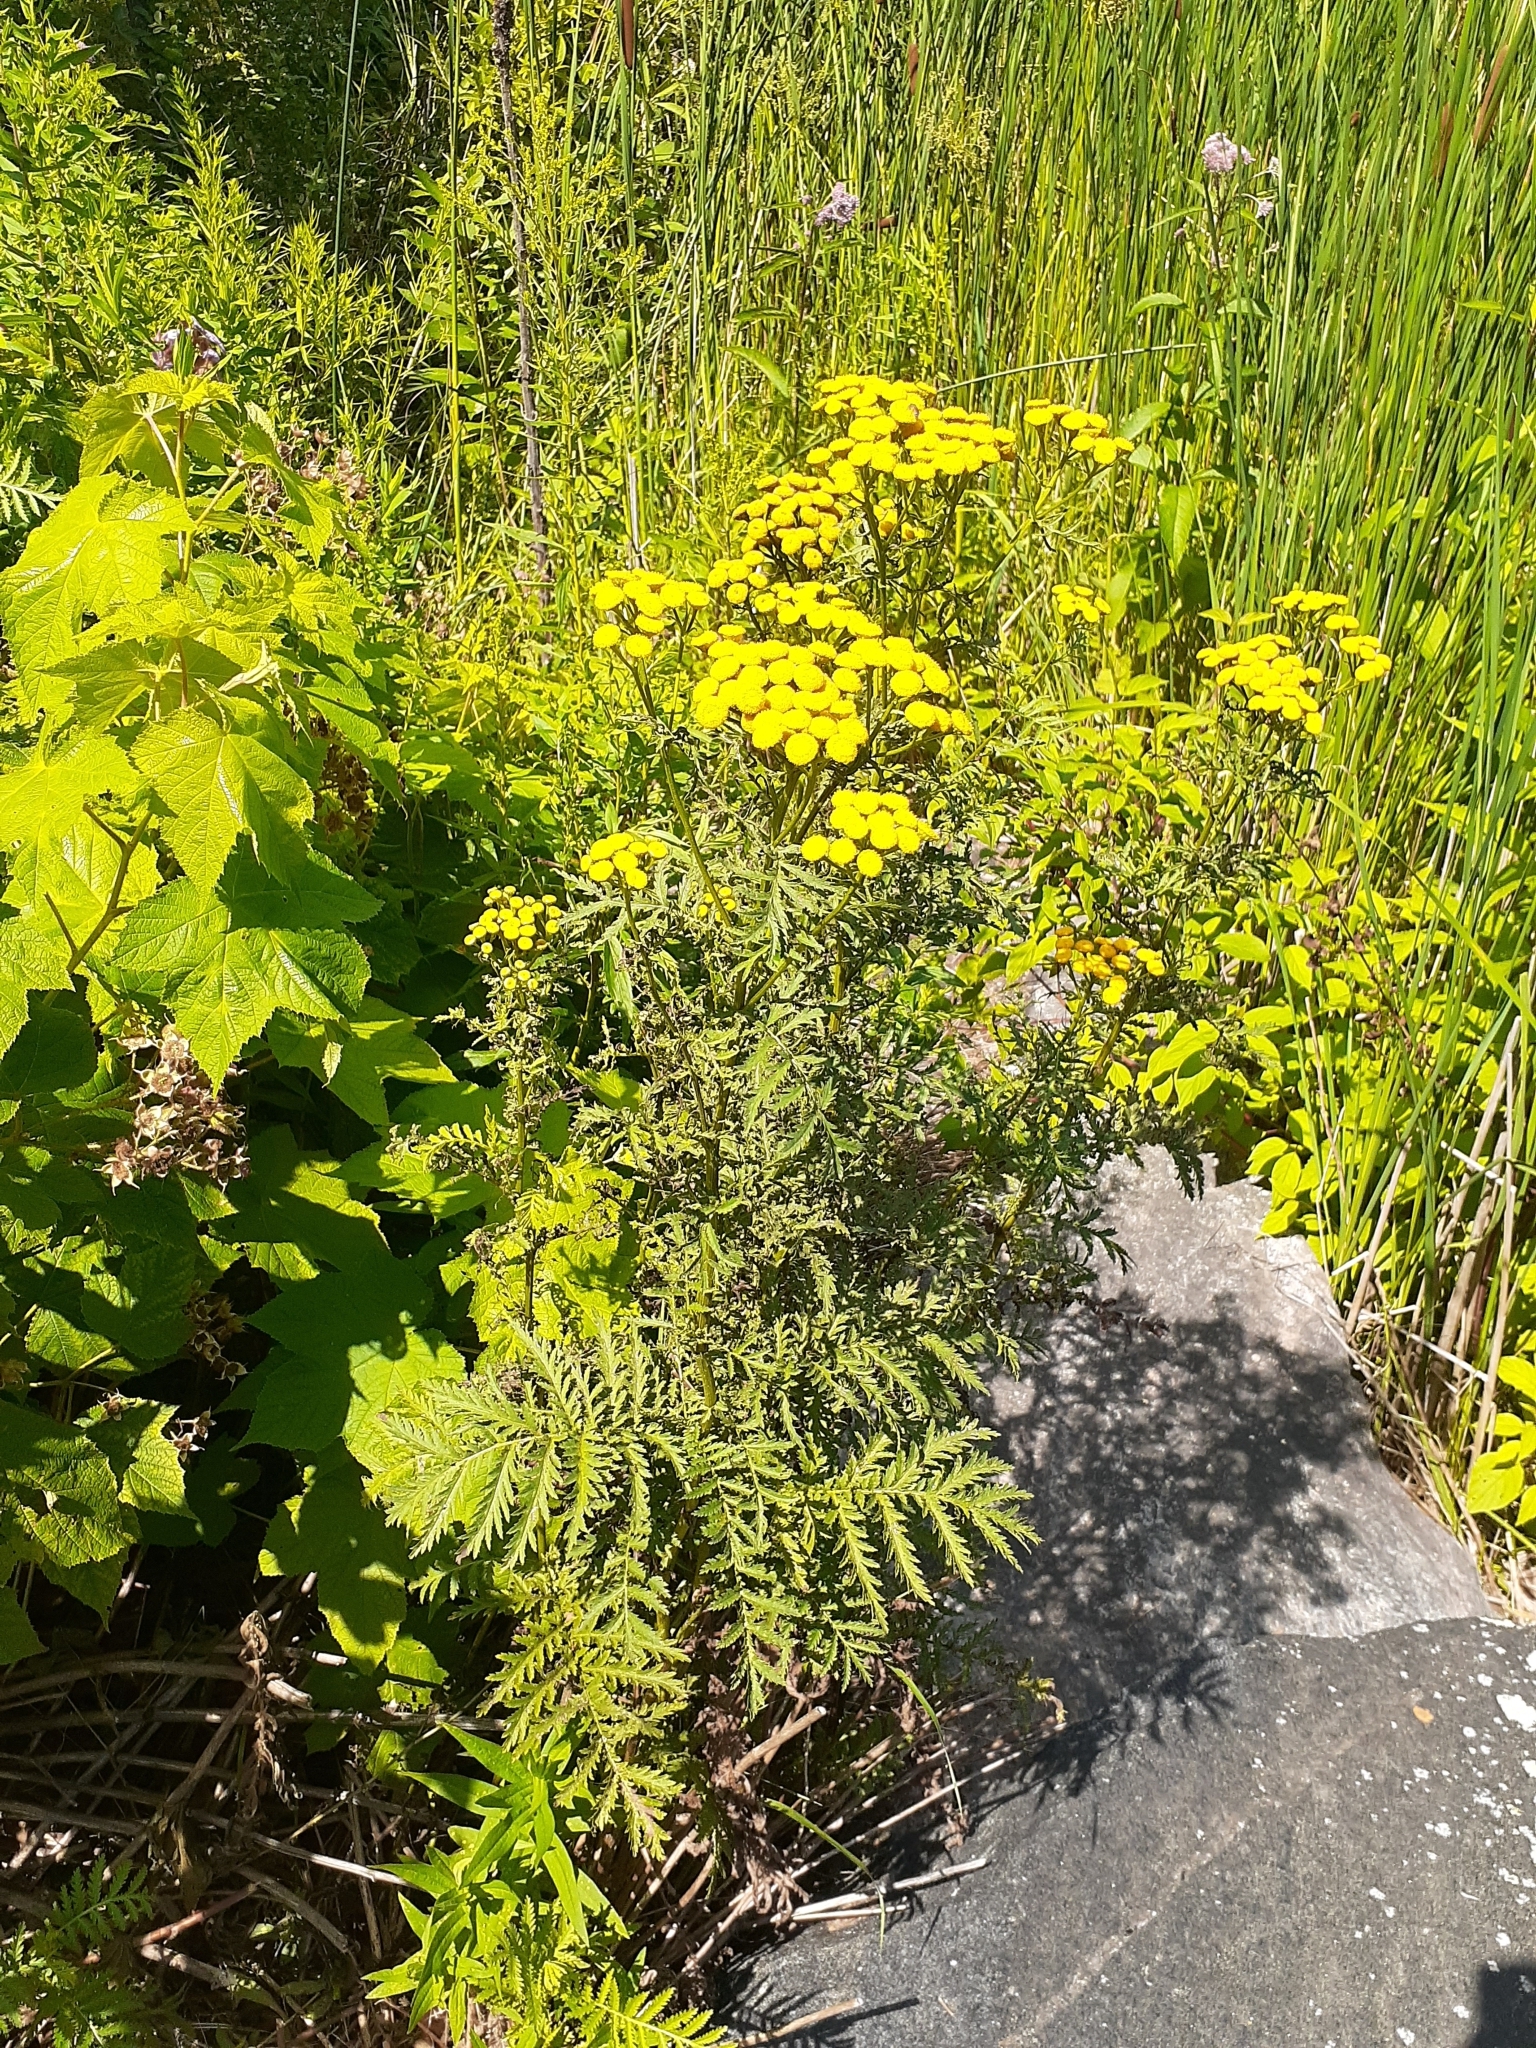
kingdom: Plantae
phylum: Tracheophyta
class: Magnoliopsida
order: Asterales
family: Asteraceae
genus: Tanacetum
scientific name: Tanacetum vulgare
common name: Common tansy
